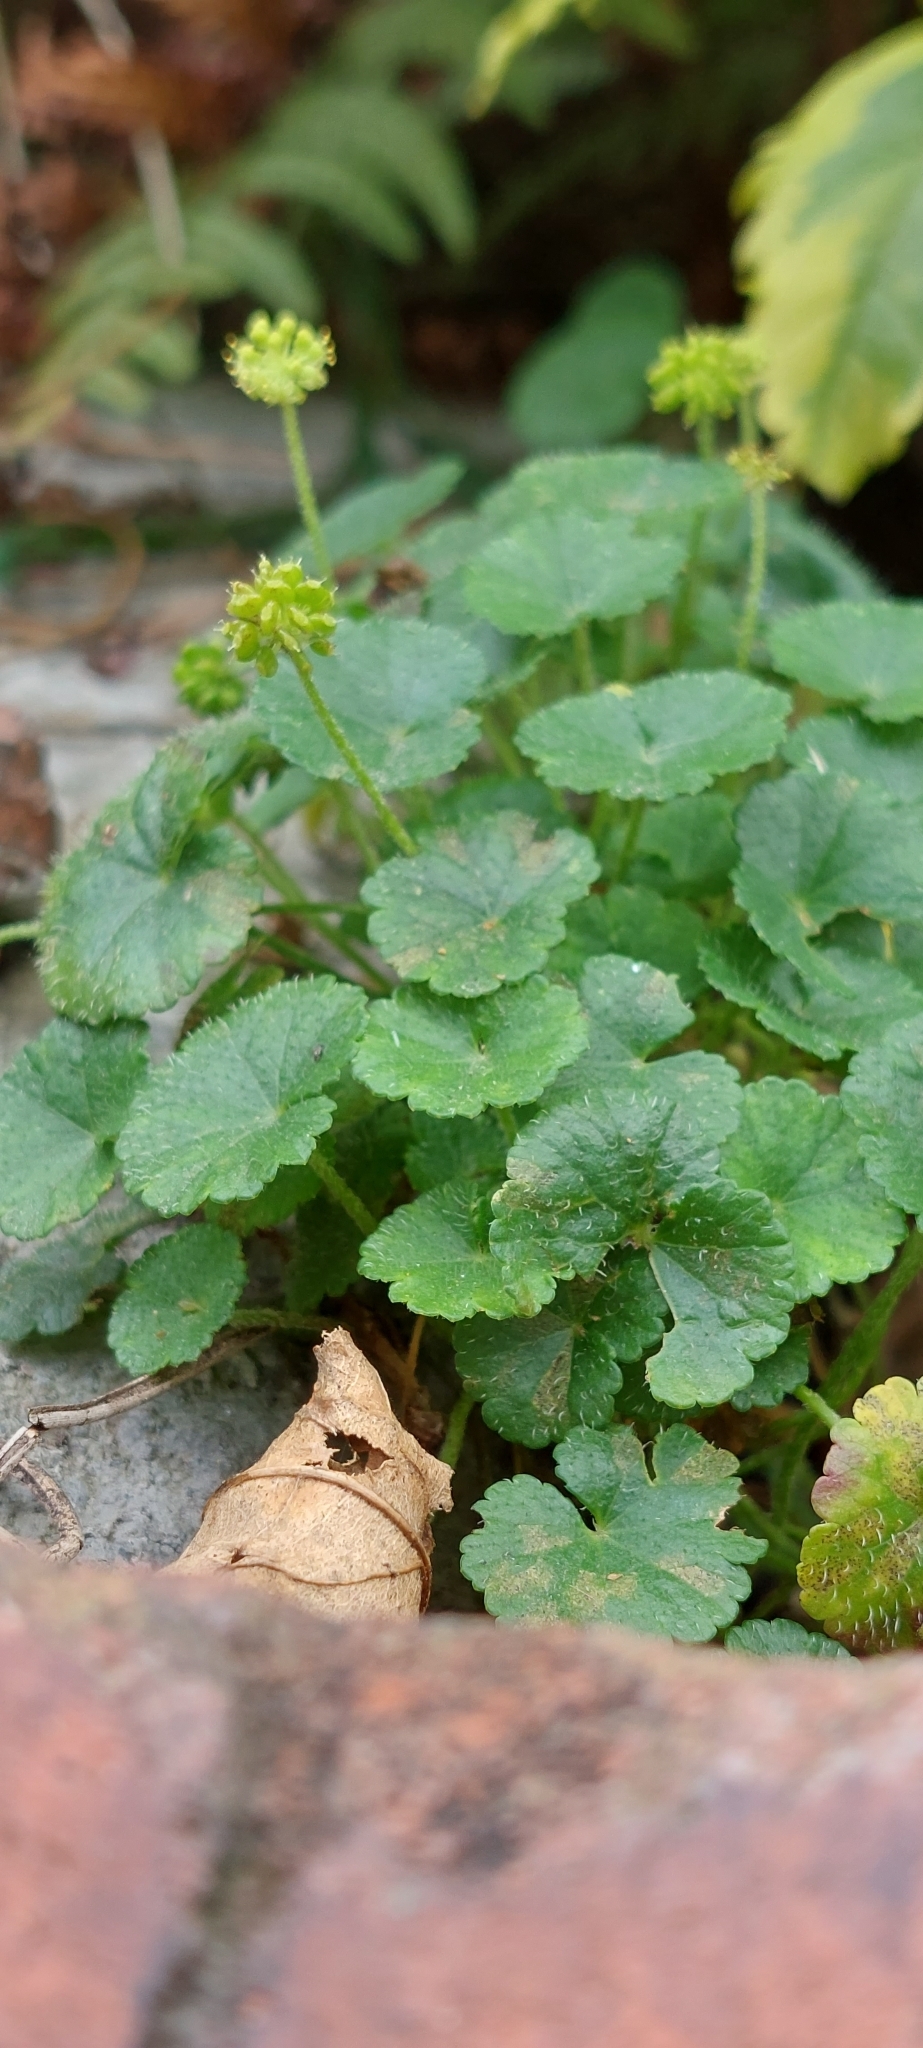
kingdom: Plantae
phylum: Tracheophyta
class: Magnoliopsida
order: Apiales
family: Araliaceae
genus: Hydrocotyle
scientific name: Hydrocotyle bonplandii
